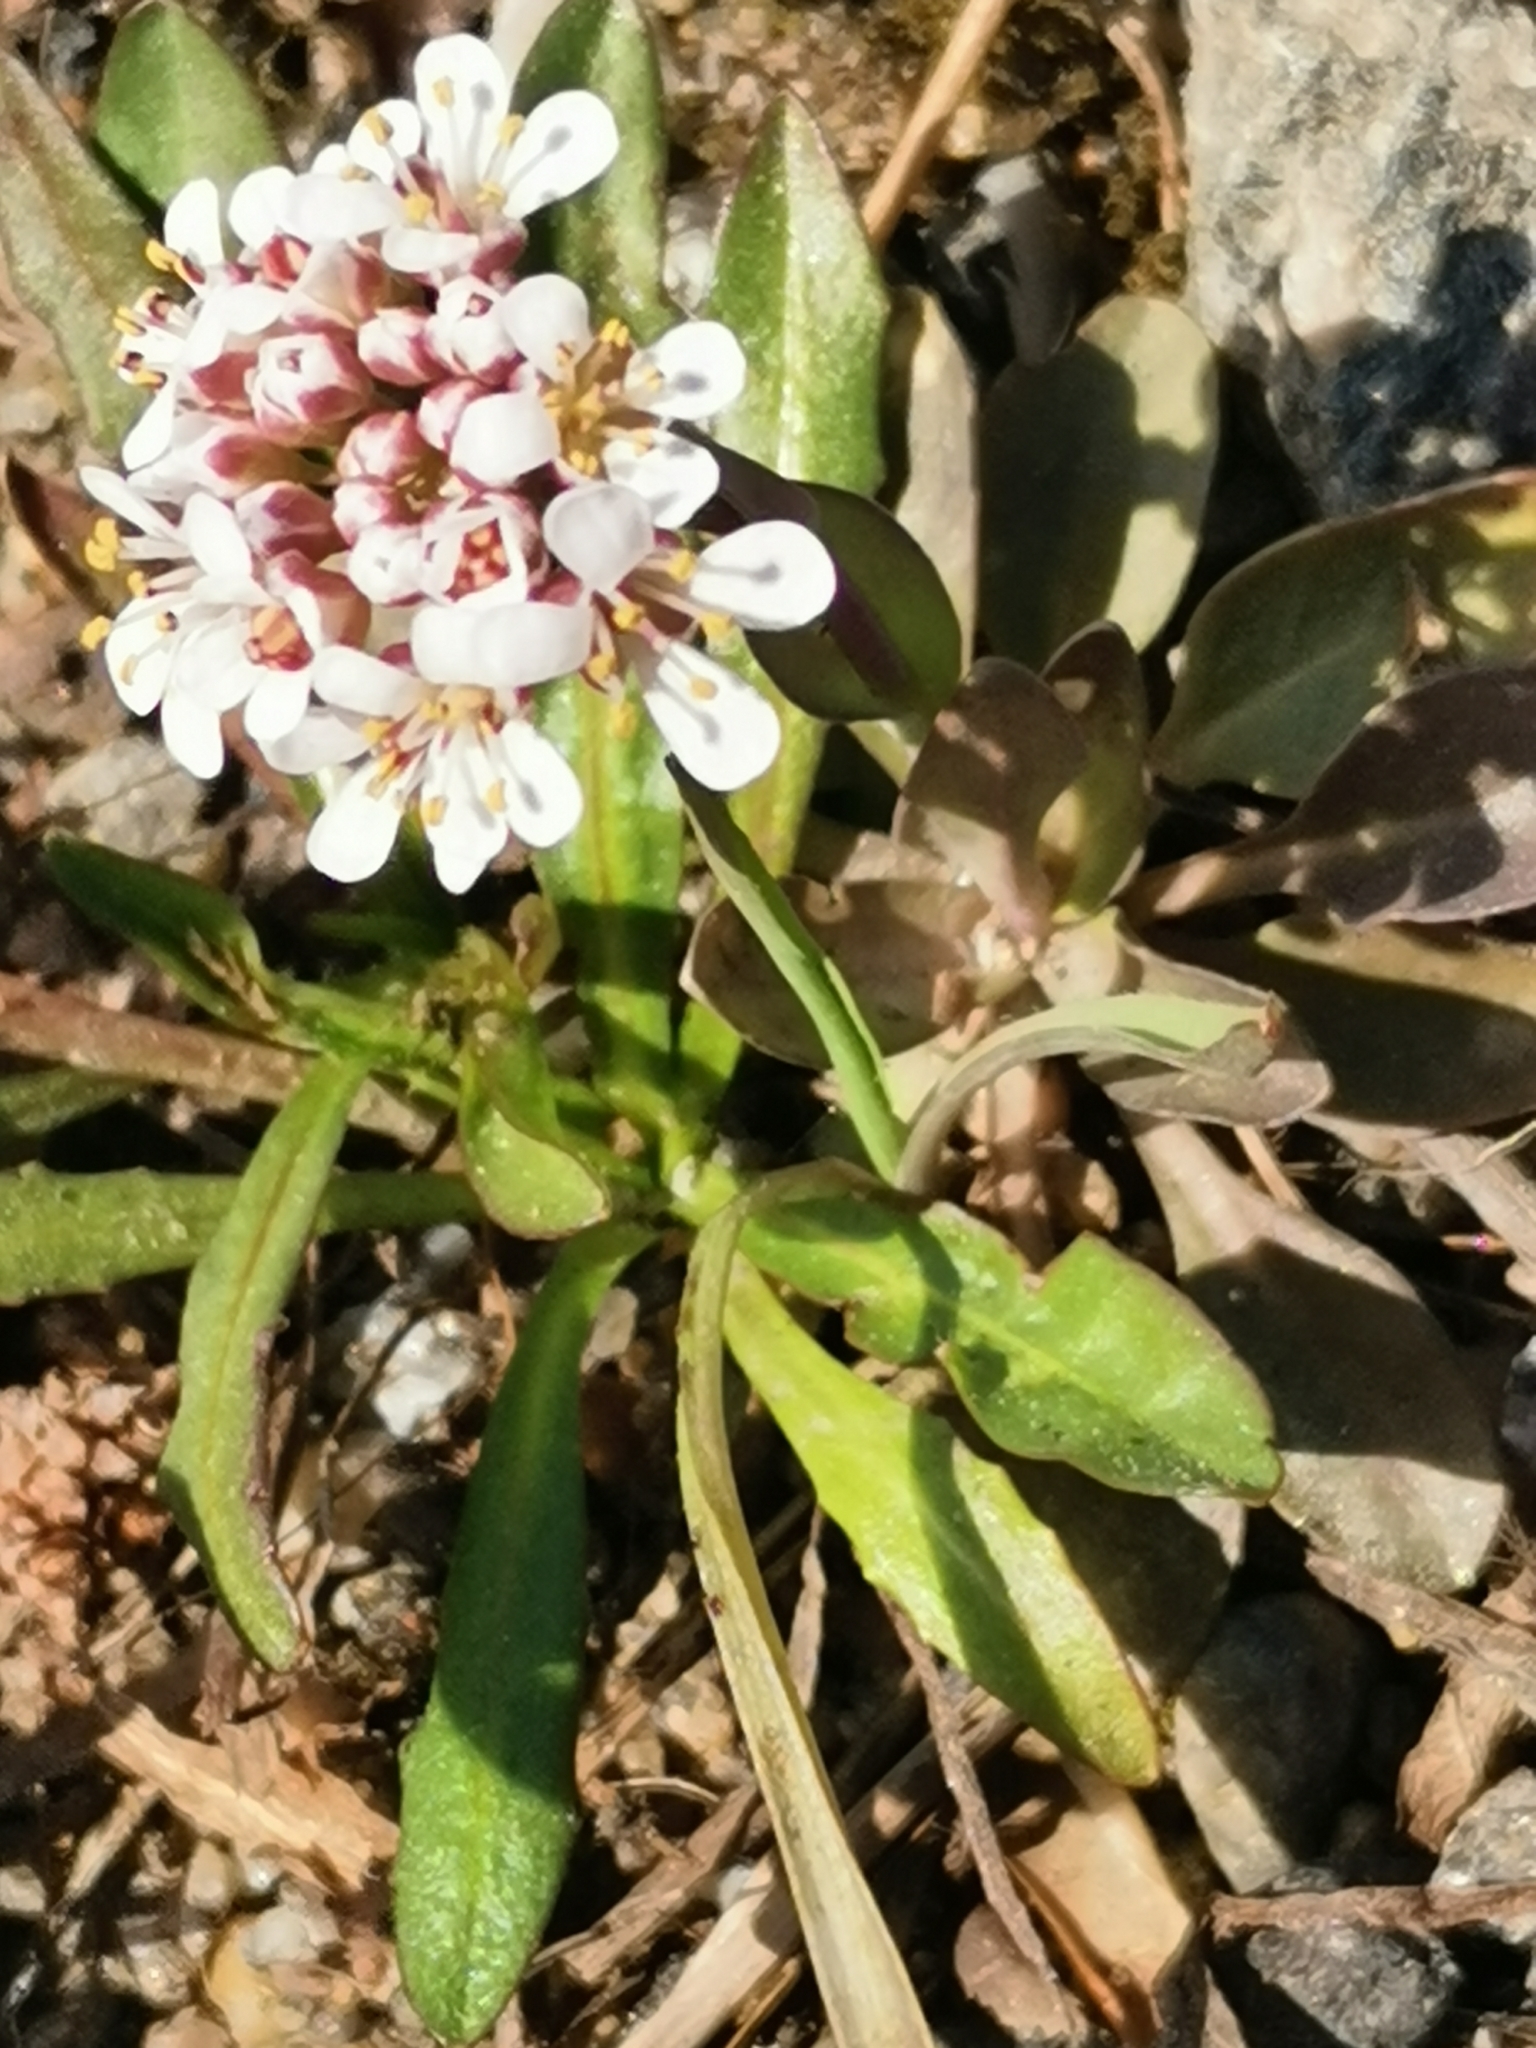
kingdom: Plantae
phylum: Tracheophyta
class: Magnoliopsida
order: Brassicales
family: Brassicaceae
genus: Noccaea
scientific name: Noccaea caerulescens
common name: Alpine pennycress
